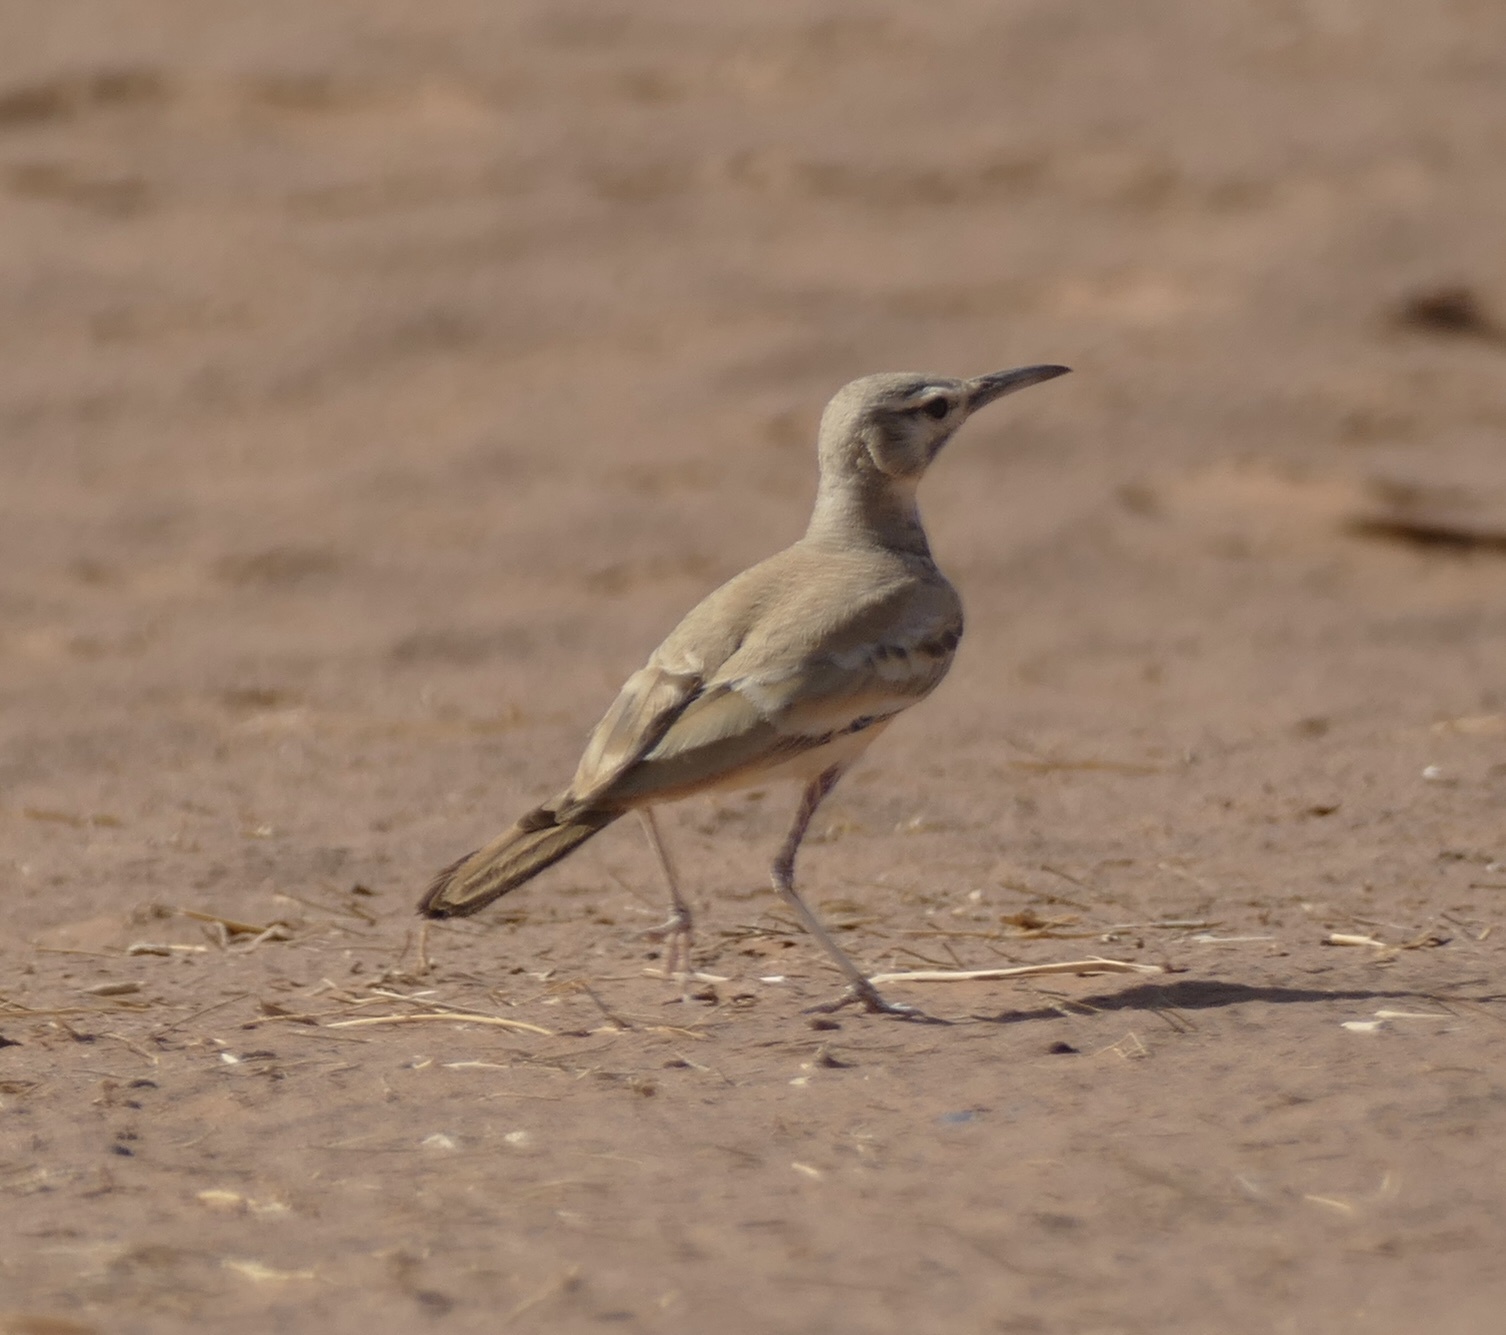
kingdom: Animalia
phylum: Chordata
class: Aves
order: Passeriformes
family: Alaudidae
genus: Alaemon
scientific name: Alaemon alaudipes
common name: Greater hoopoe-lark
